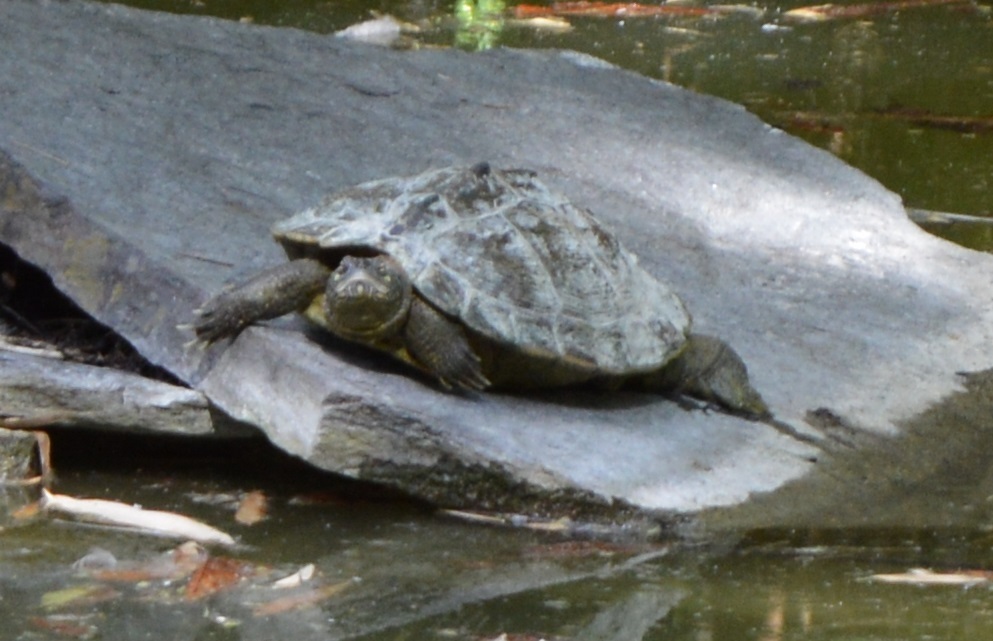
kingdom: Animalia
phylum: Chordata
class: Testudines
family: Emydidae
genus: Graptemys
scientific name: Graptemys pseudogeographica
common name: False map turtle
